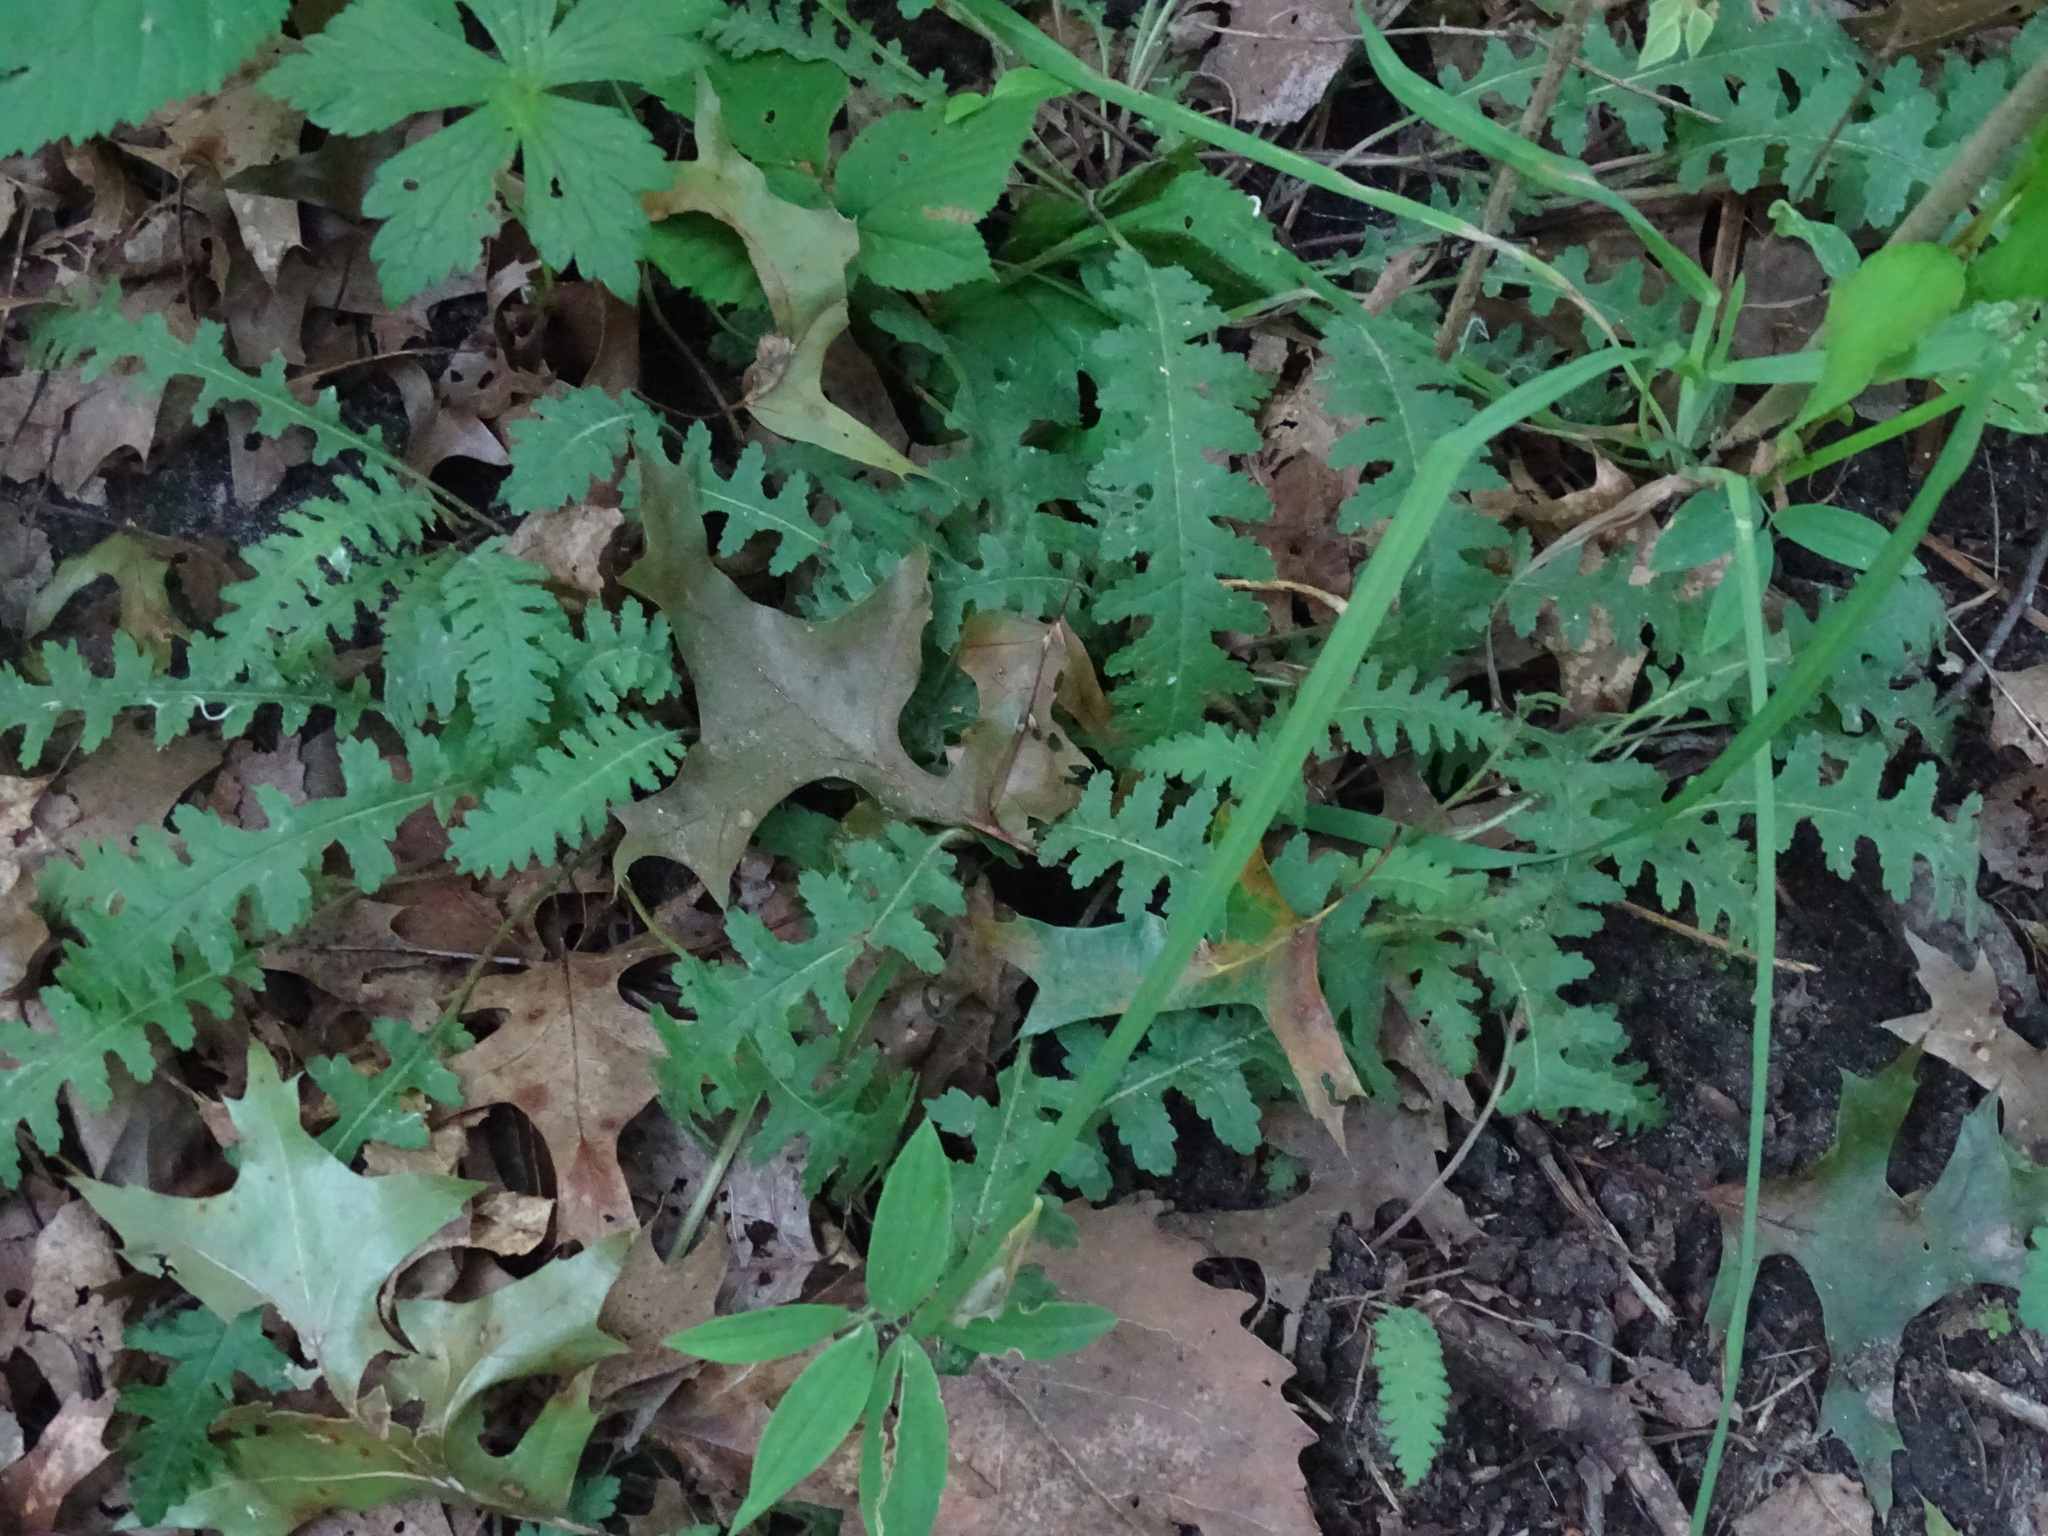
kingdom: Plantae
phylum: Tracheophyta
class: Magnoliopsida
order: Lamiales
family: Orobanchaceae
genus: Pedicularis
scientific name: Pedicularis canadensis
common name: Early lousewort
